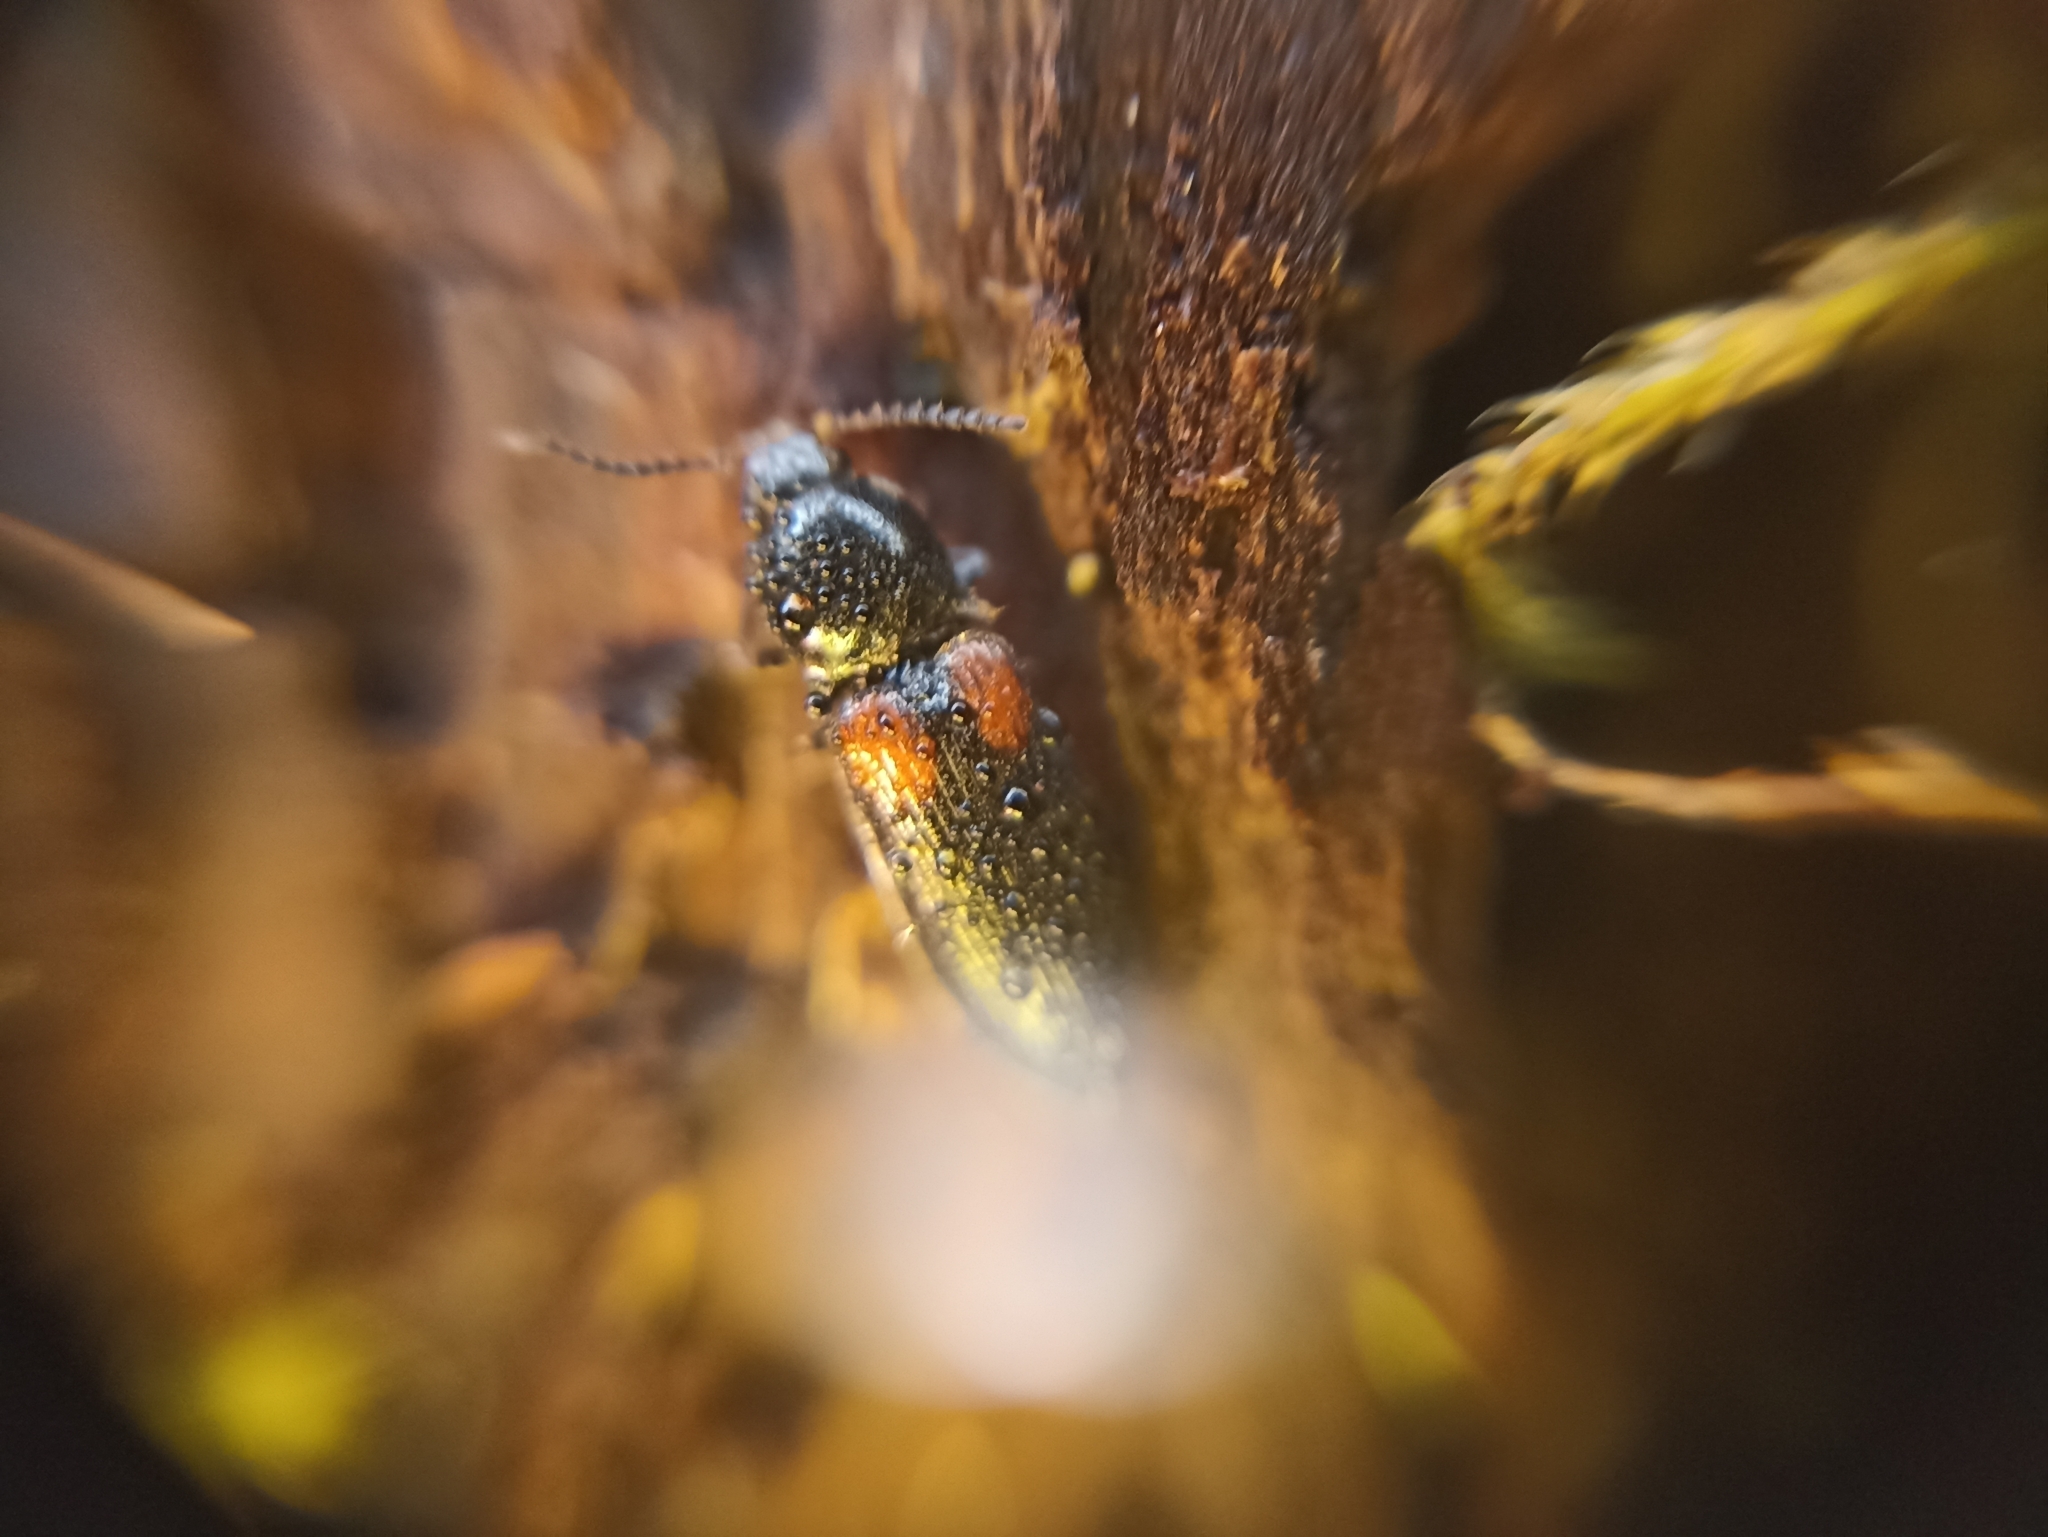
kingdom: Animalia
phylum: Arthropoda
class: Insecta
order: Coleoptera
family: Elateridae
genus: Calambus
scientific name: Calambus bipustulatus
